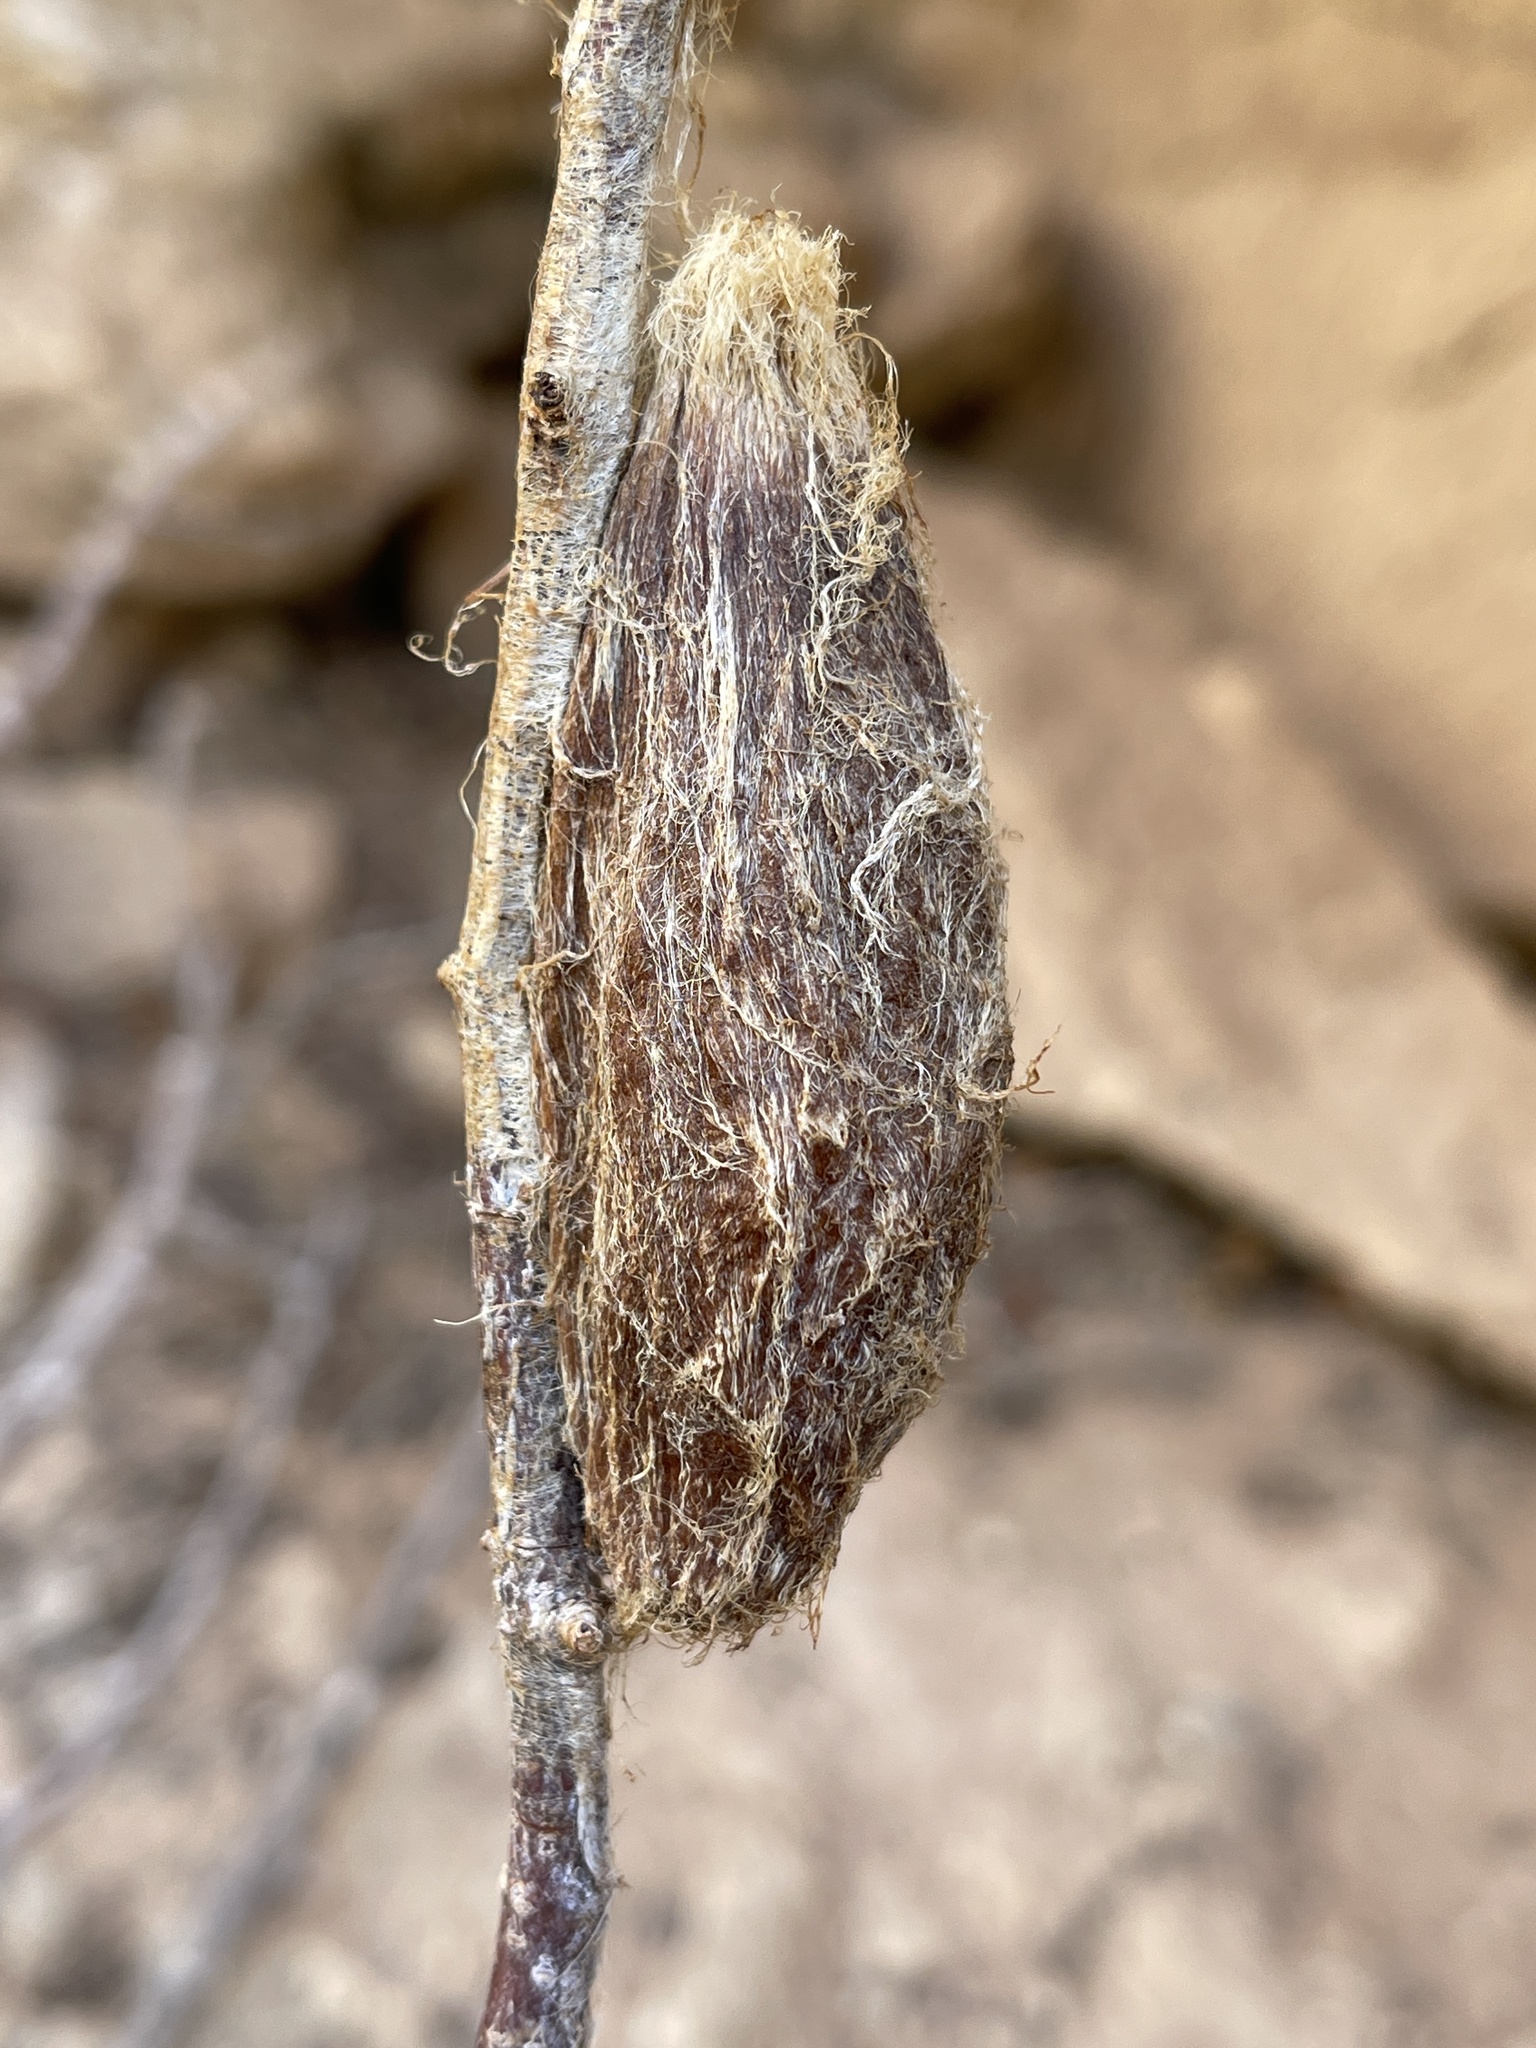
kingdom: Animalia
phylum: Arthropoda
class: Insecta
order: Lepidoptera
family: Saturniidae
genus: Hyalophora
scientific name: Hyalophora gloveri
